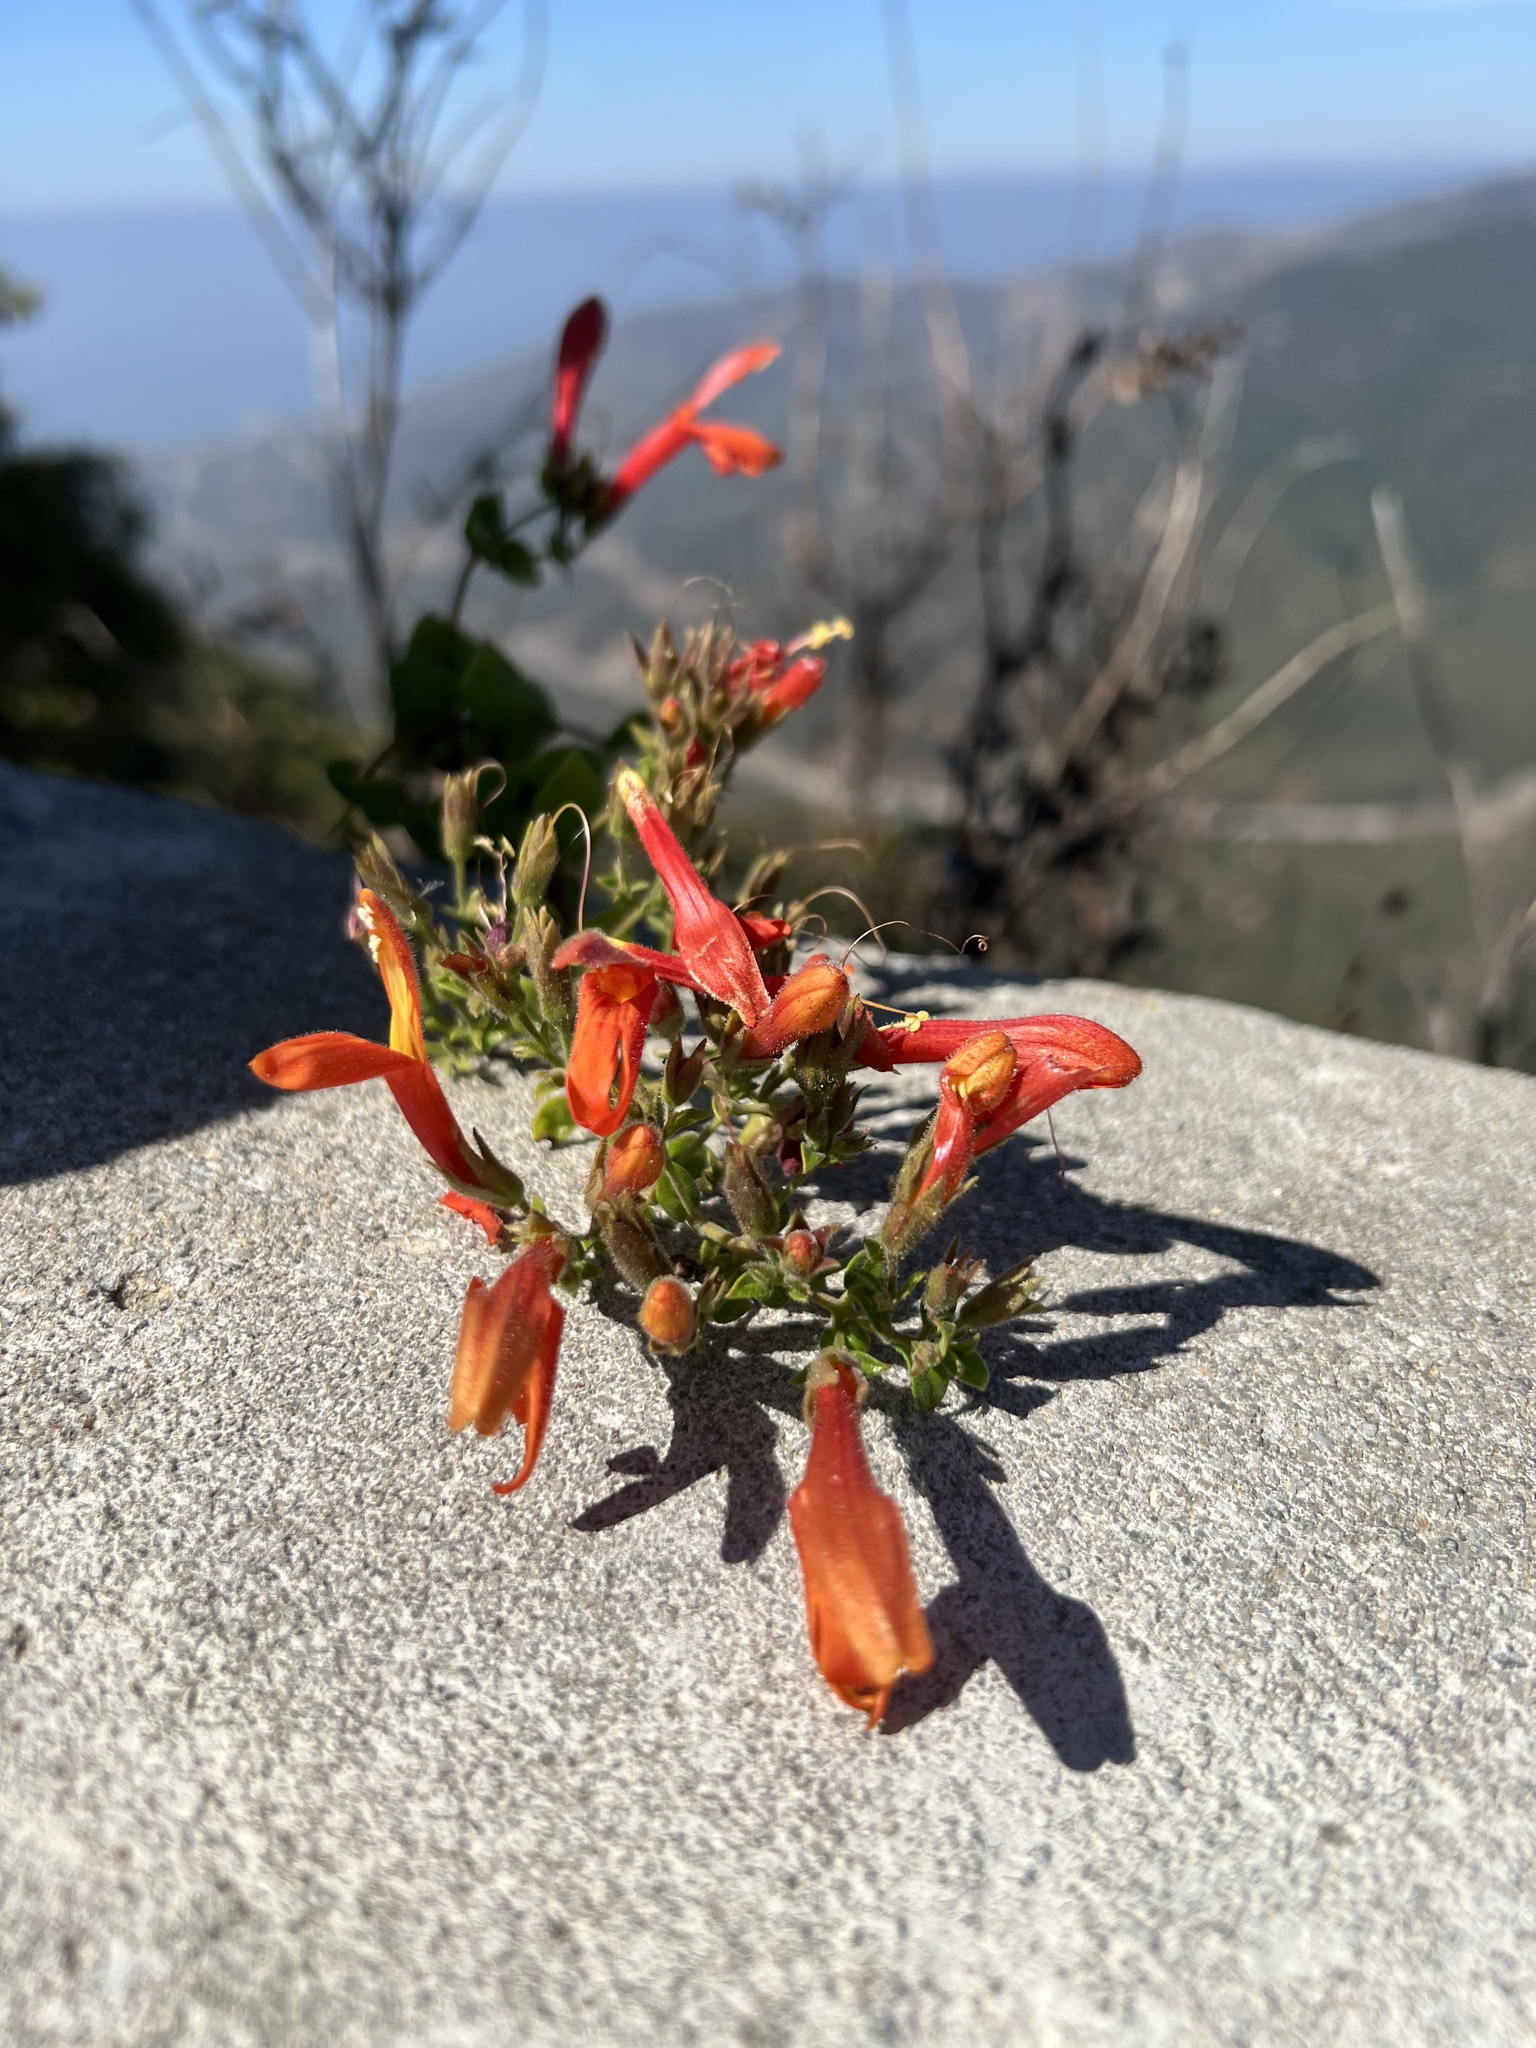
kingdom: Plantae
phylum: Tracheophyta
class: Magnoliopsida
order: Lamiales
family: Plantaginaceae
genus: Keckiella
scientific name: Keckiella cordifolia
